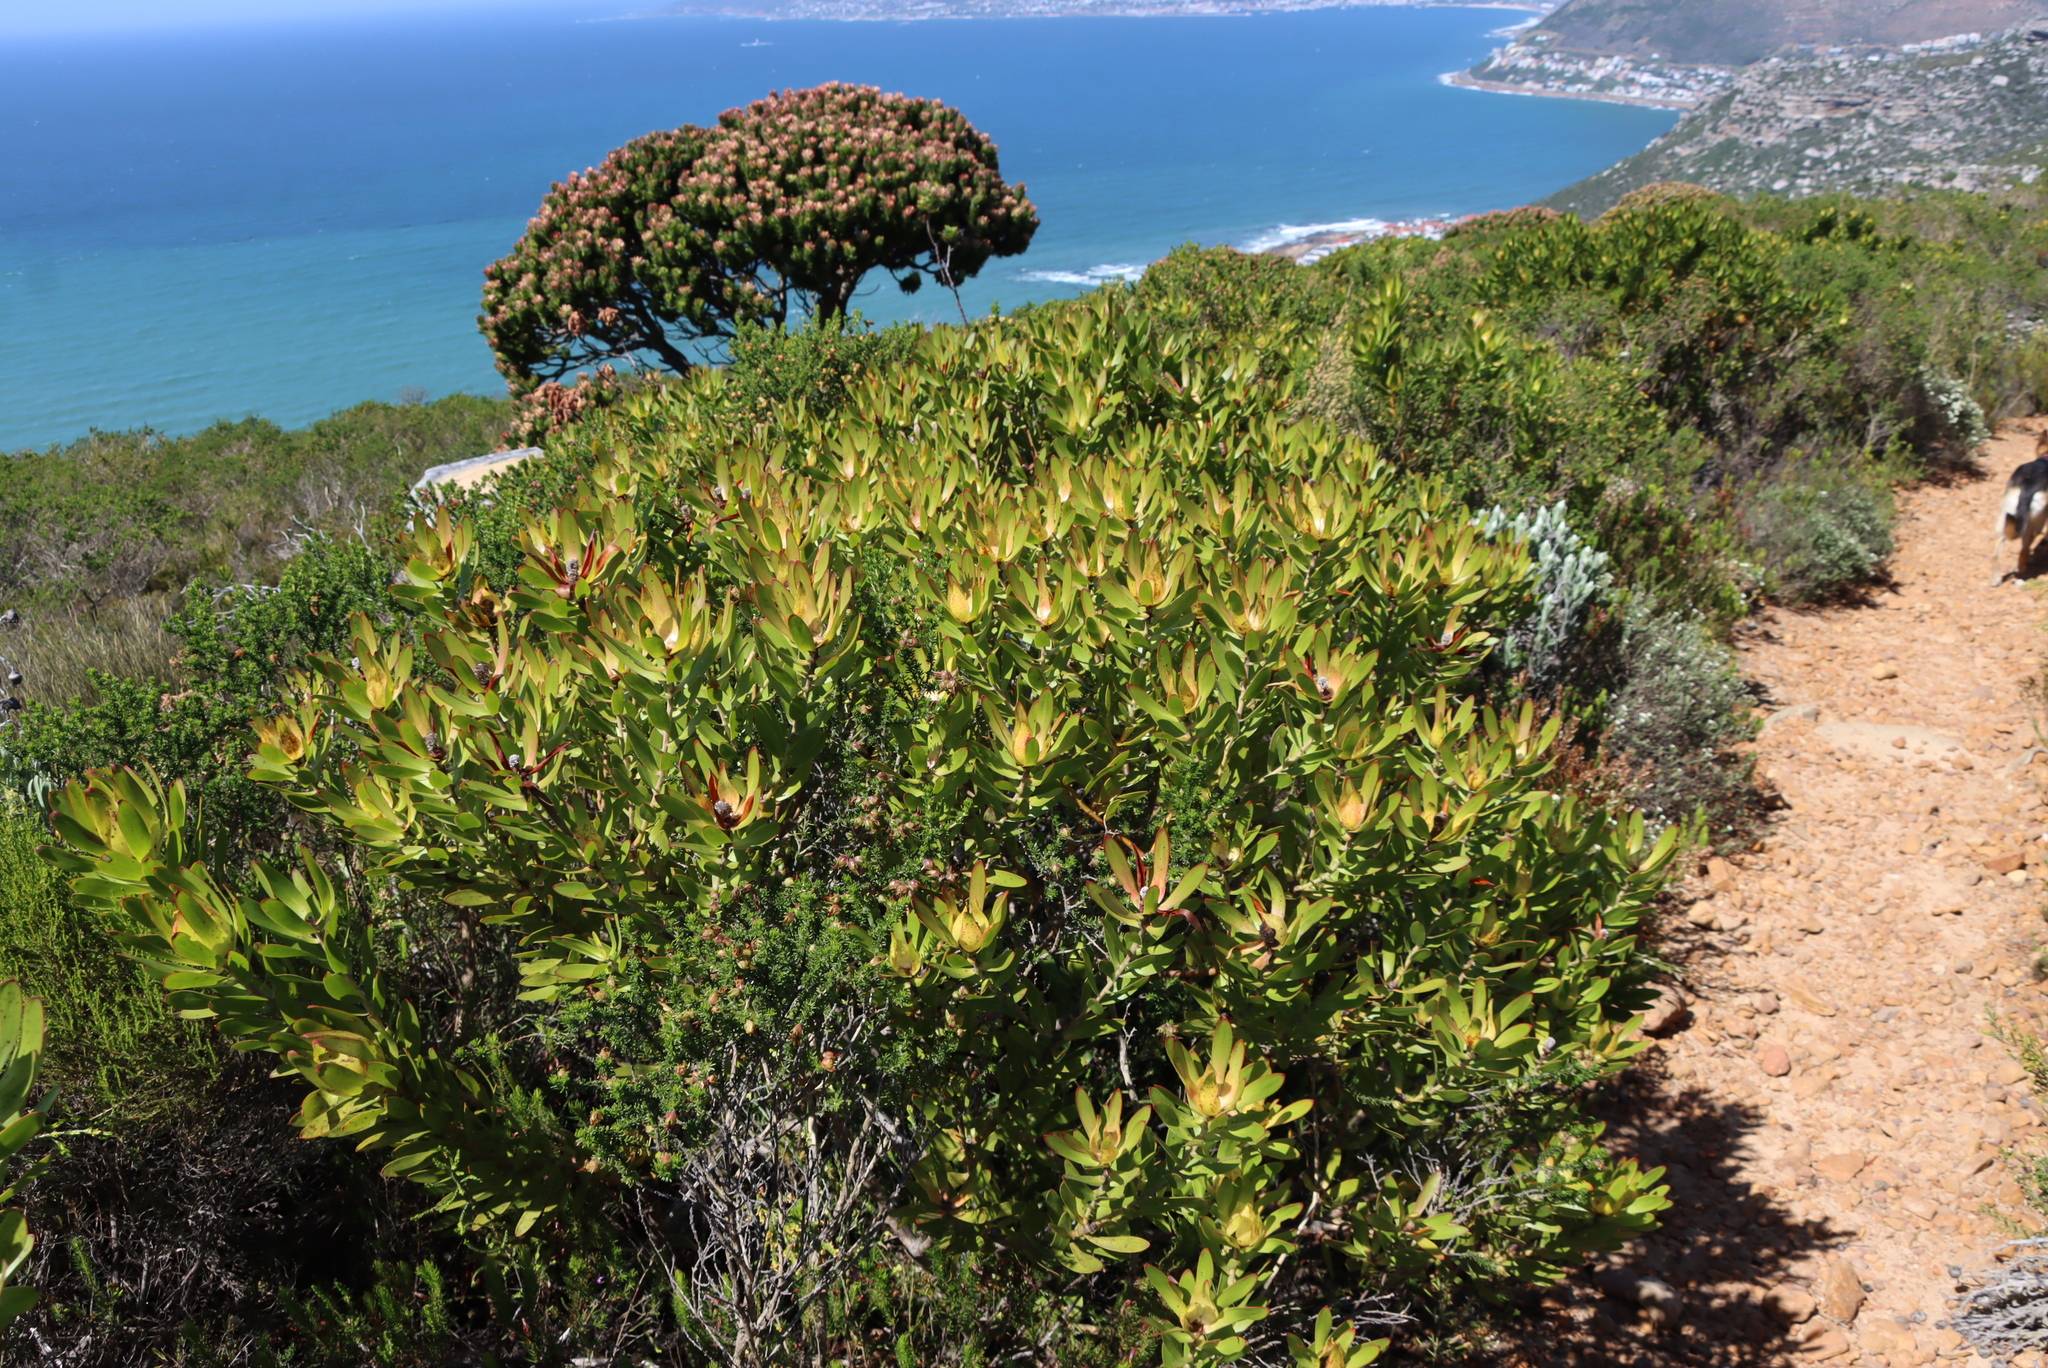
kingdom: Plantae
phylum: Tracheophyta
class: Magnoliopsida
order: Proteales
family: Proteaceae
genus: Leucadendron
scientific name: Leucadendron laureolum
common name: Golden sunshinebush
